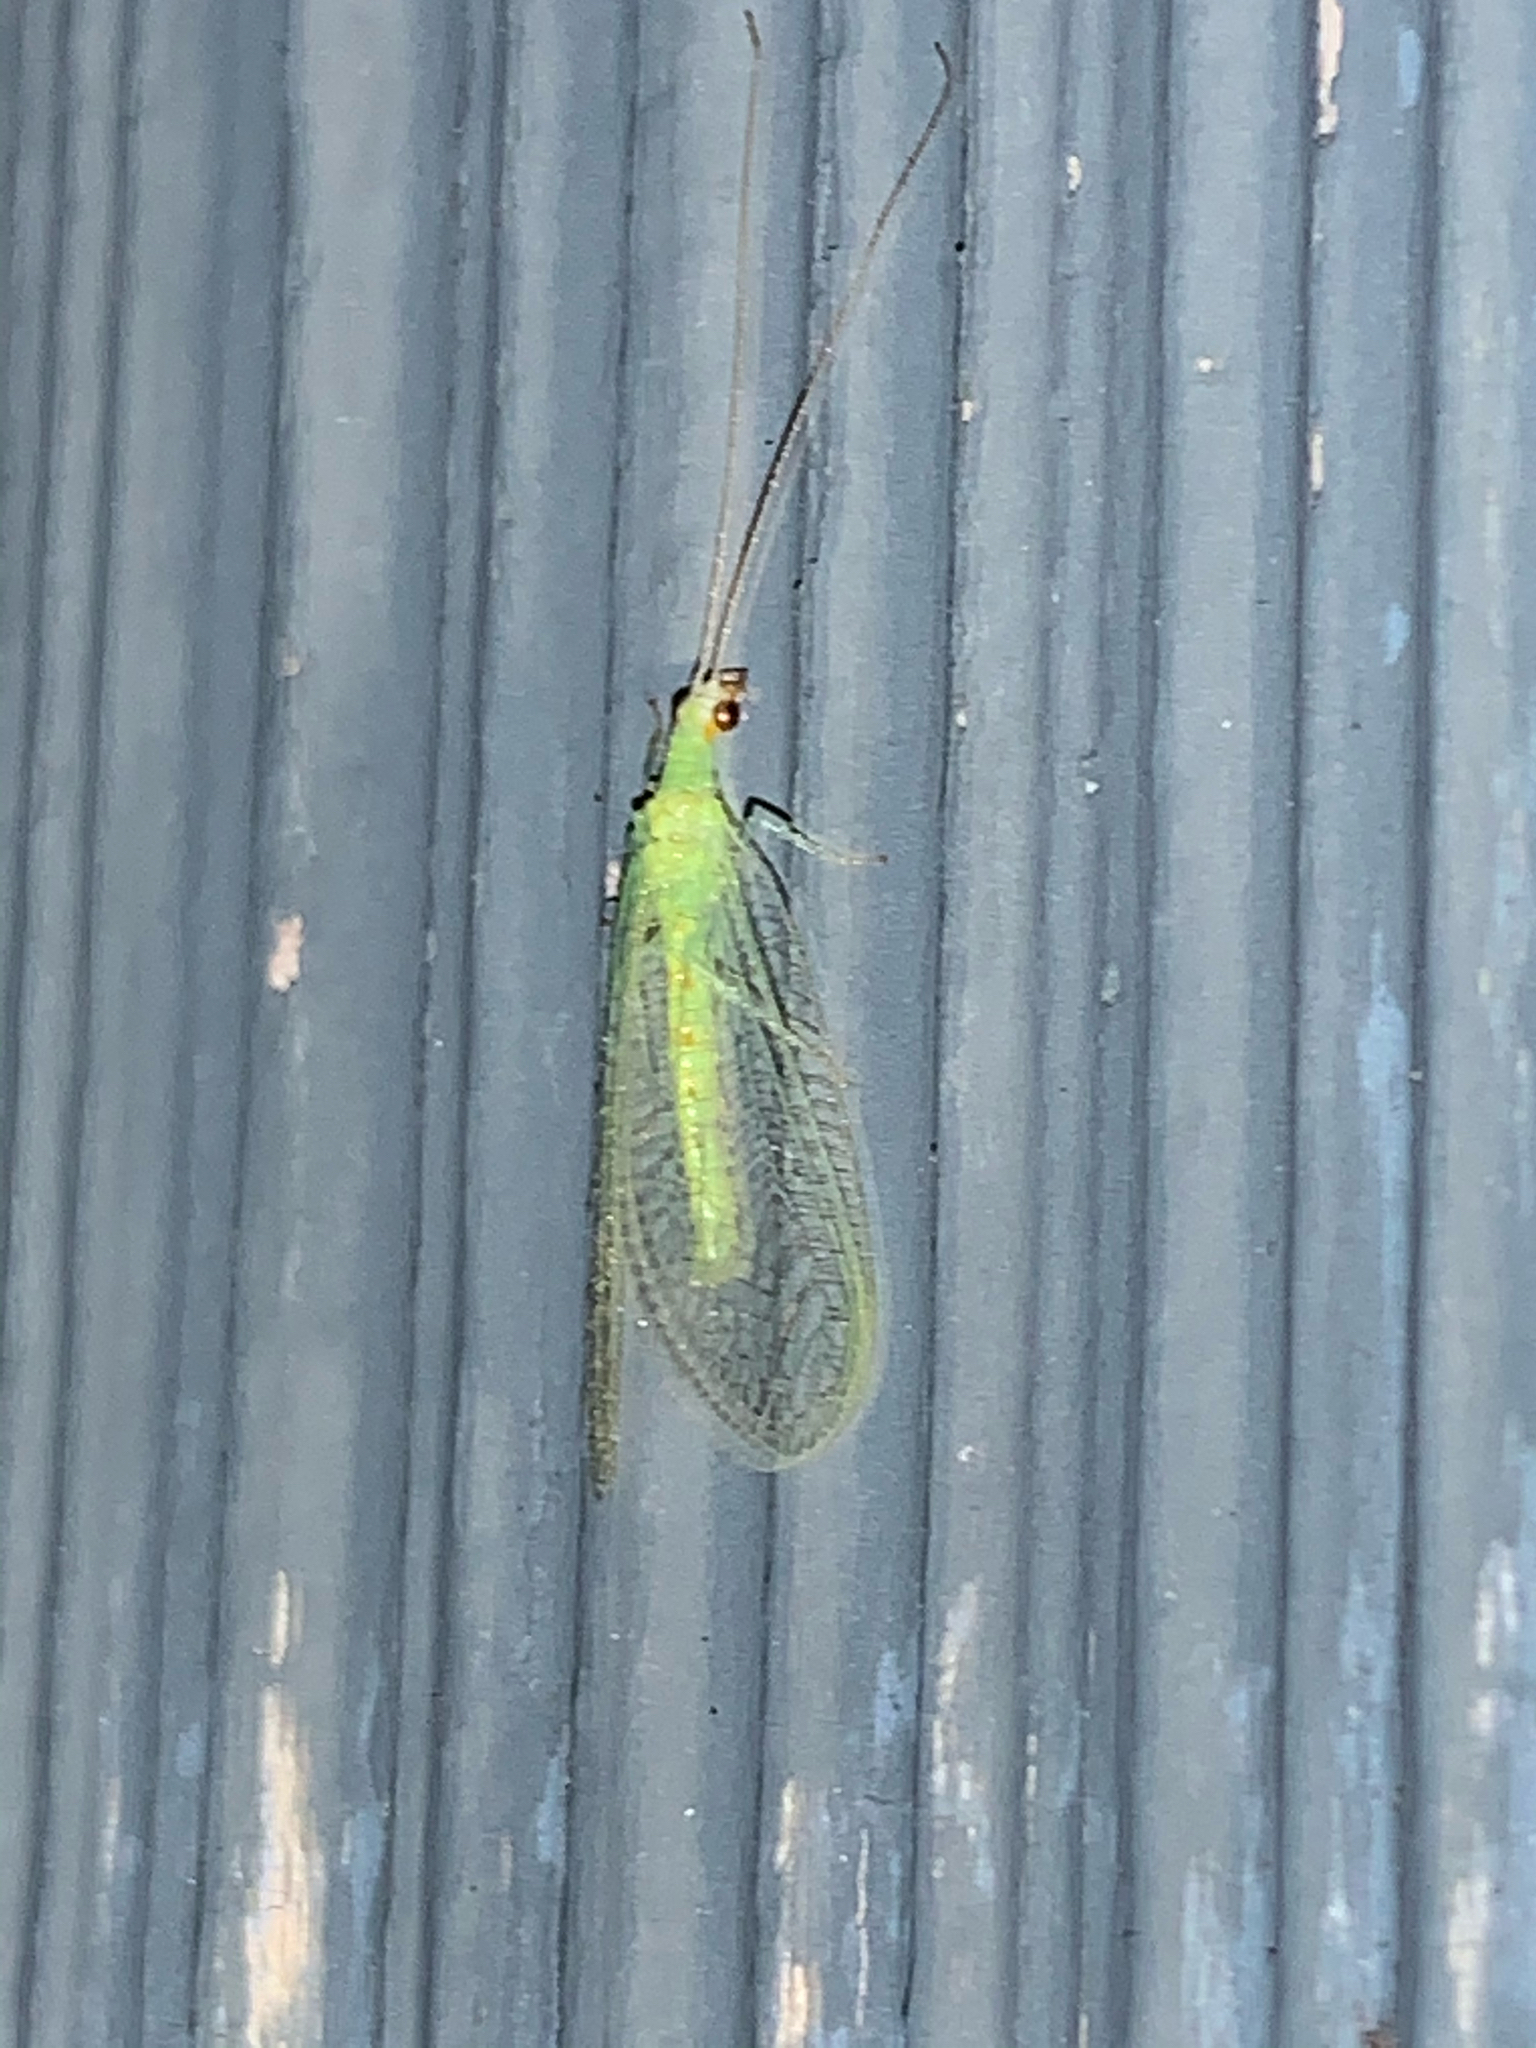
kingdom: Animalia
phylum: Arthropoda
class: Insecta
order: Neuroptera
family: Chrysopidae
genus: Chrysopa
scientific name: Chrysopa quadripunctata
